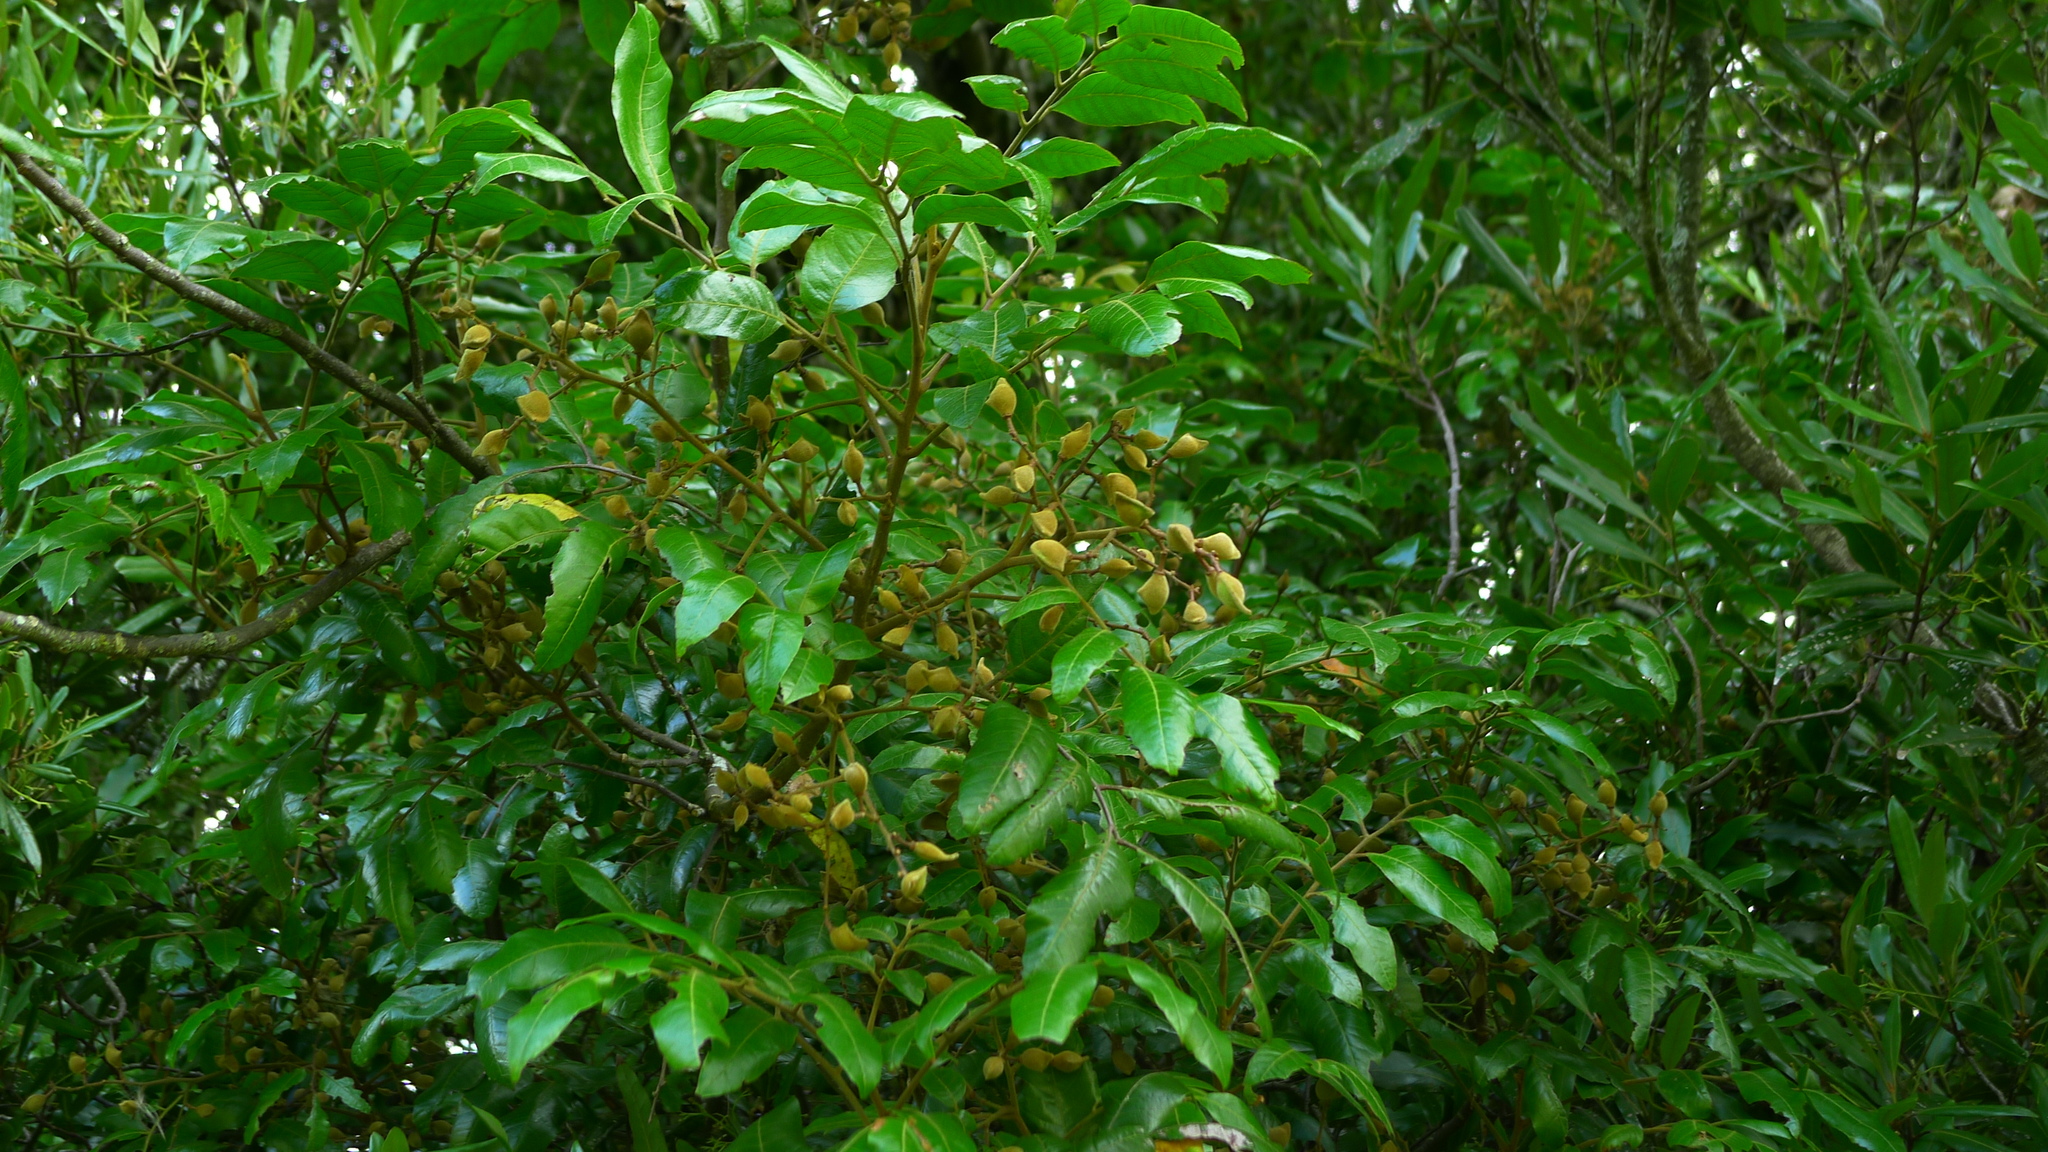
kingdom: Plantae
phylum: Tracheophyta
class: Magnoliopsida
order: Sapindales
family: Sapindaceae
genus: Alectryon
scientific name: Alectryon excelsus
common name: Three kings titoki
